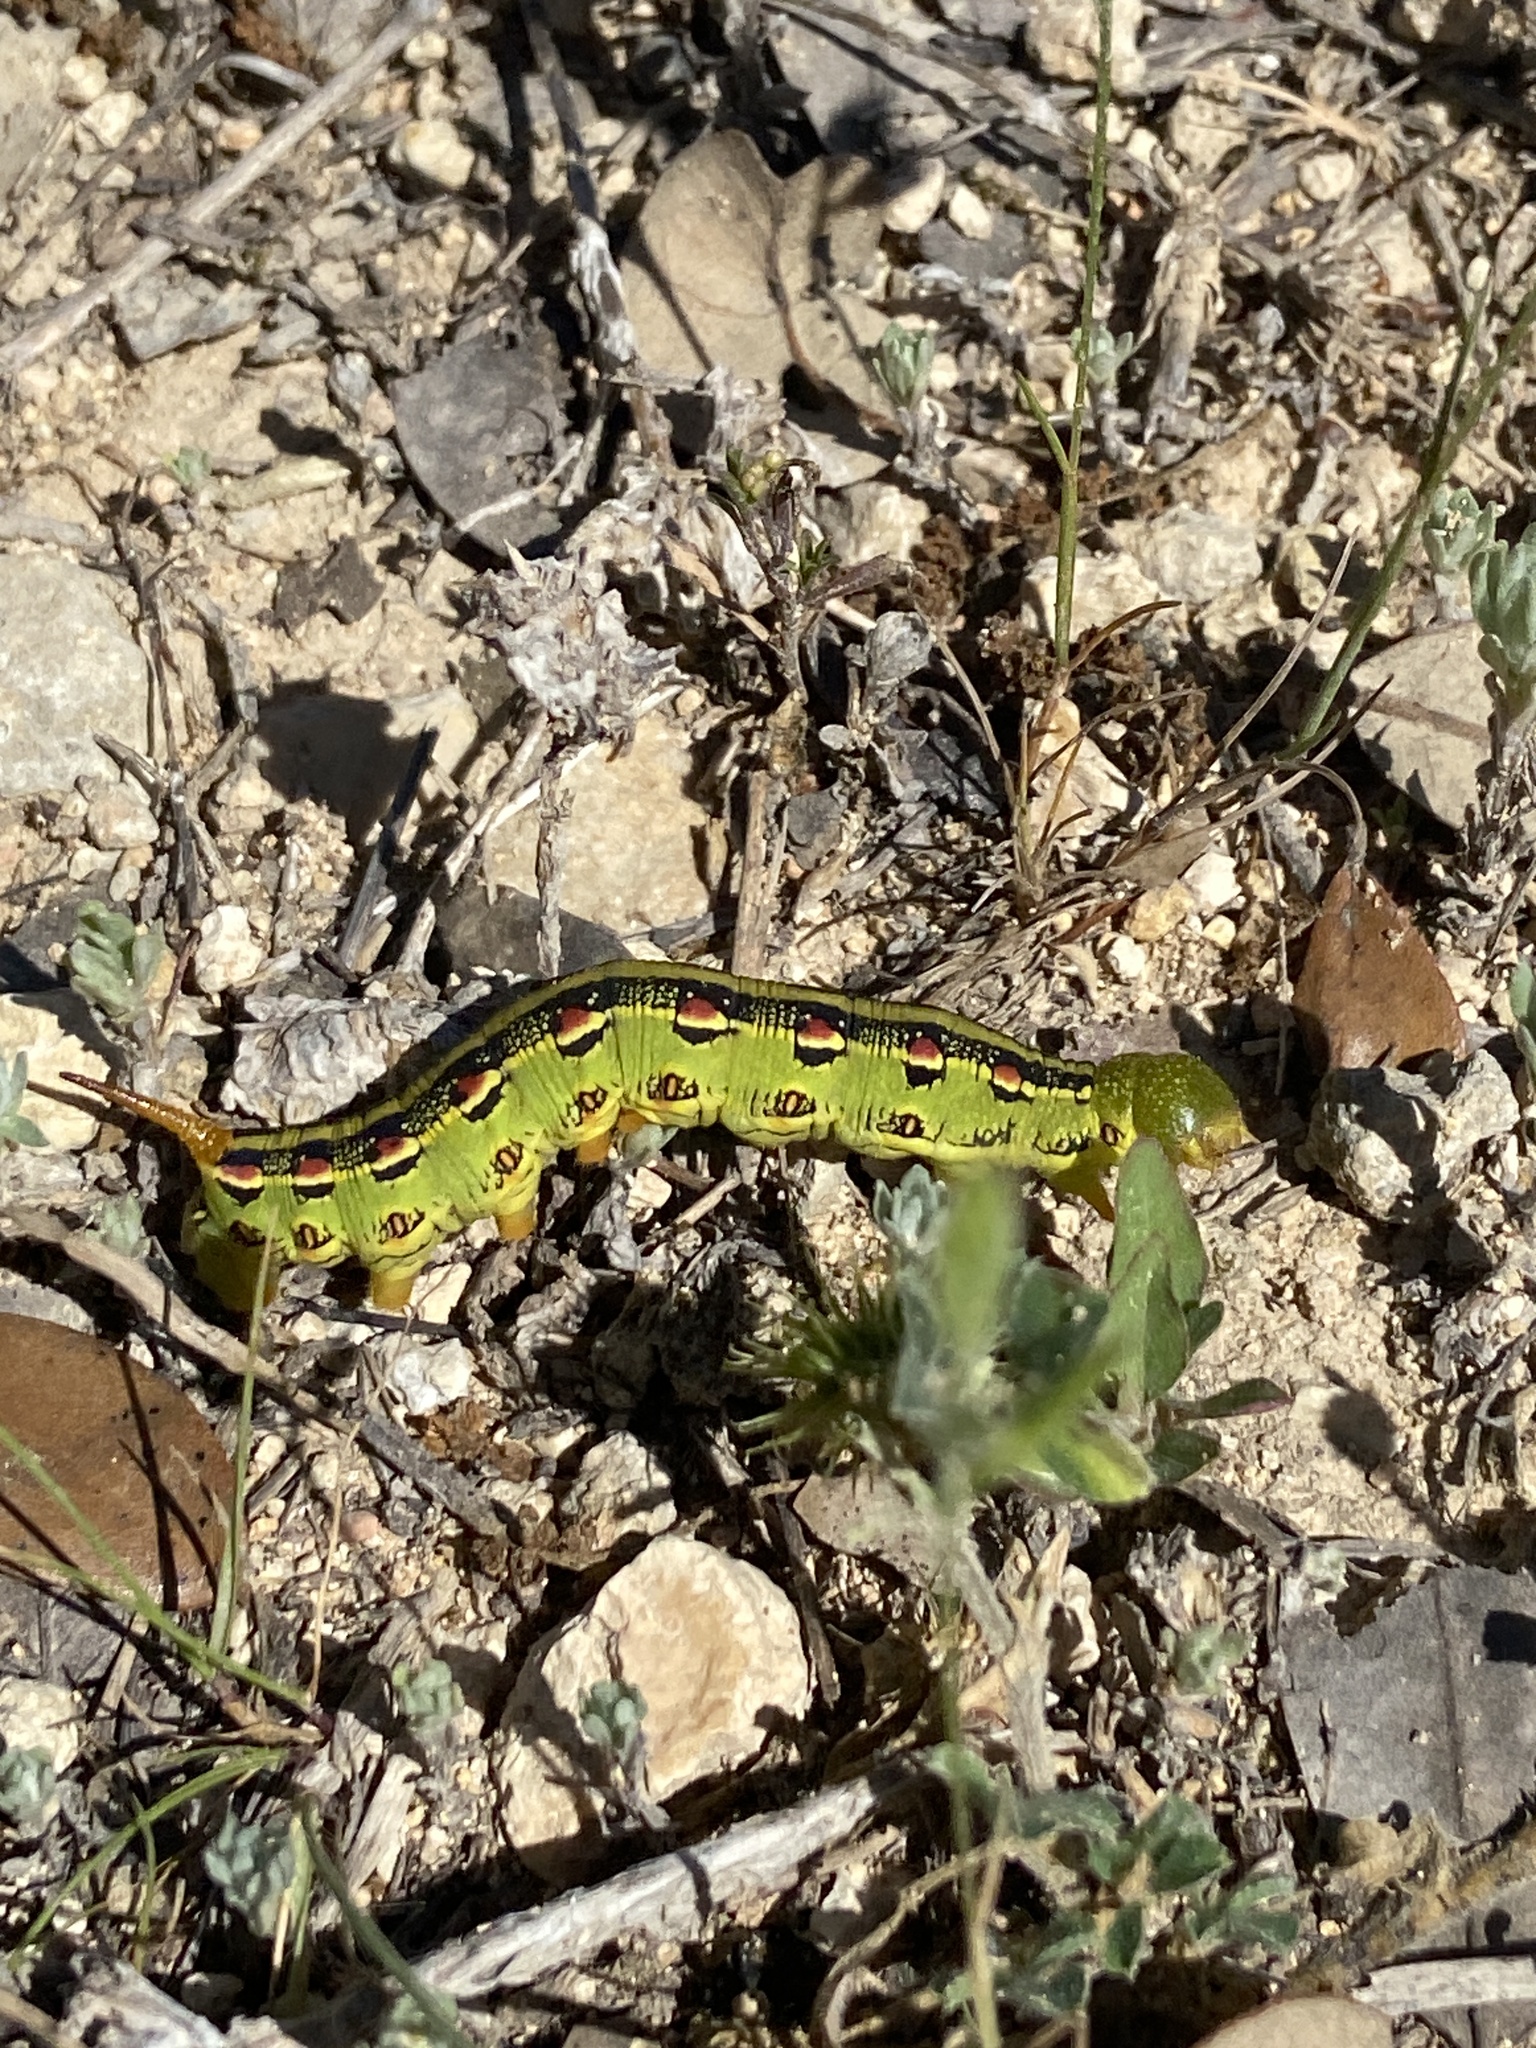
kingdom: Animalia
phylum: Arthropoda
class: Insecta
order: Lepidoptera
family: Sphingidae
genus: Hyles
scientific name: Hyles lineata
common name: White-lined sphinx
